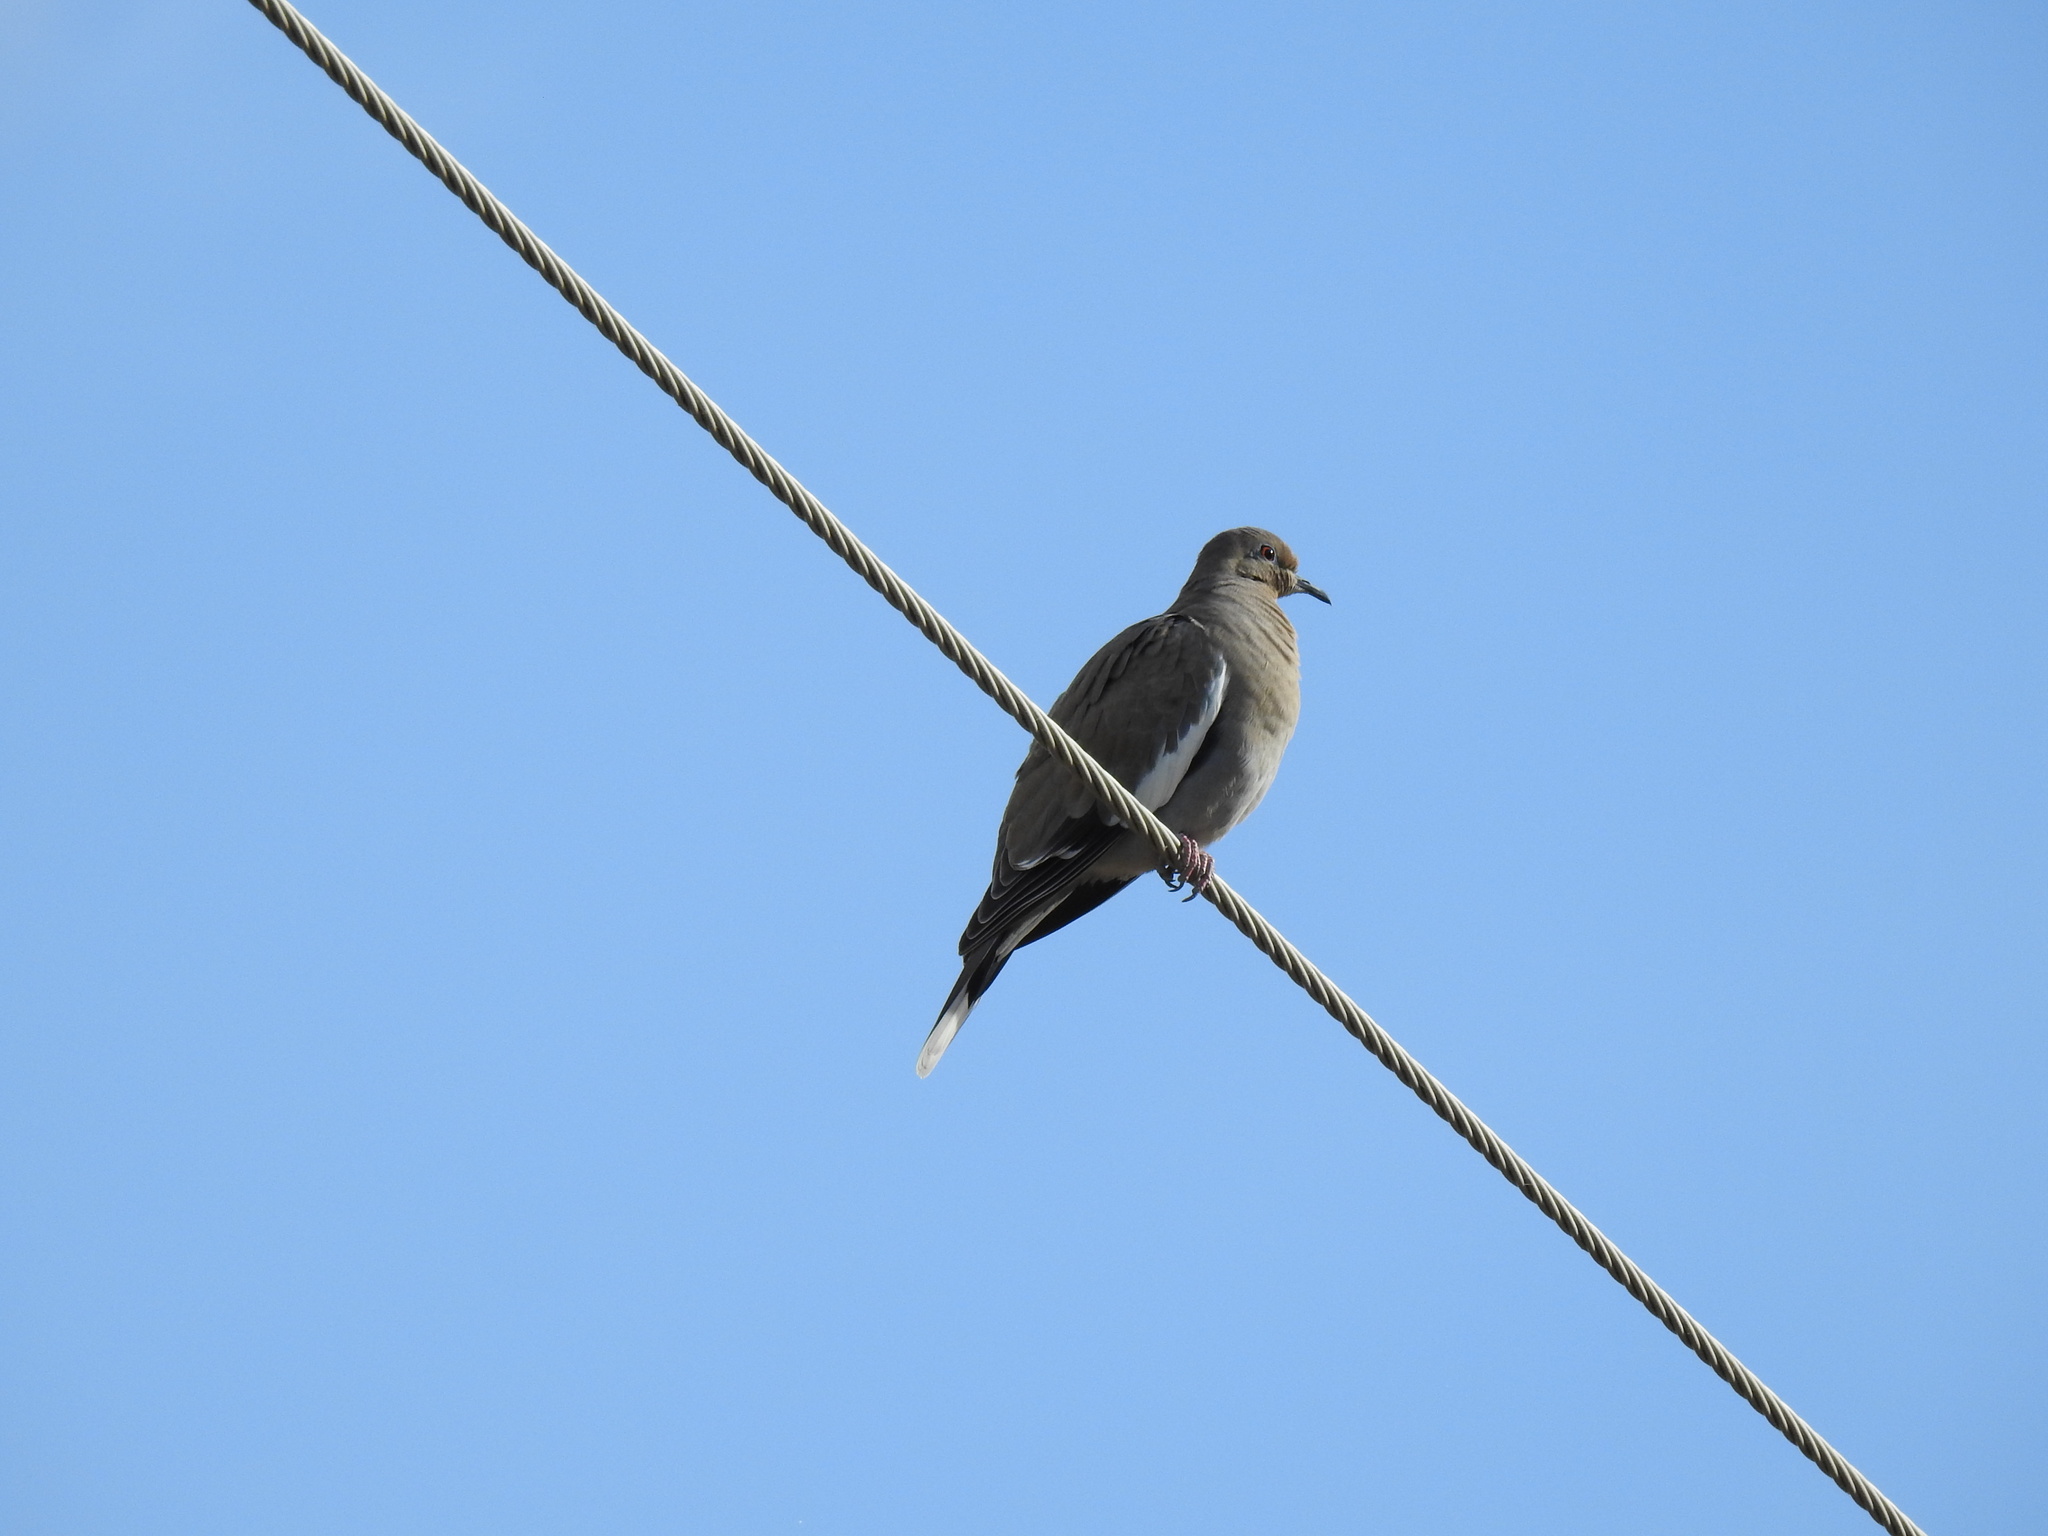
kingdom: Animalia
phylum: Chordata
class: Aves
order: Columbiformes
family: Columbidae
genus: Zenaida
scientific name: Zenaida asiatica
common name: White-winged dove
